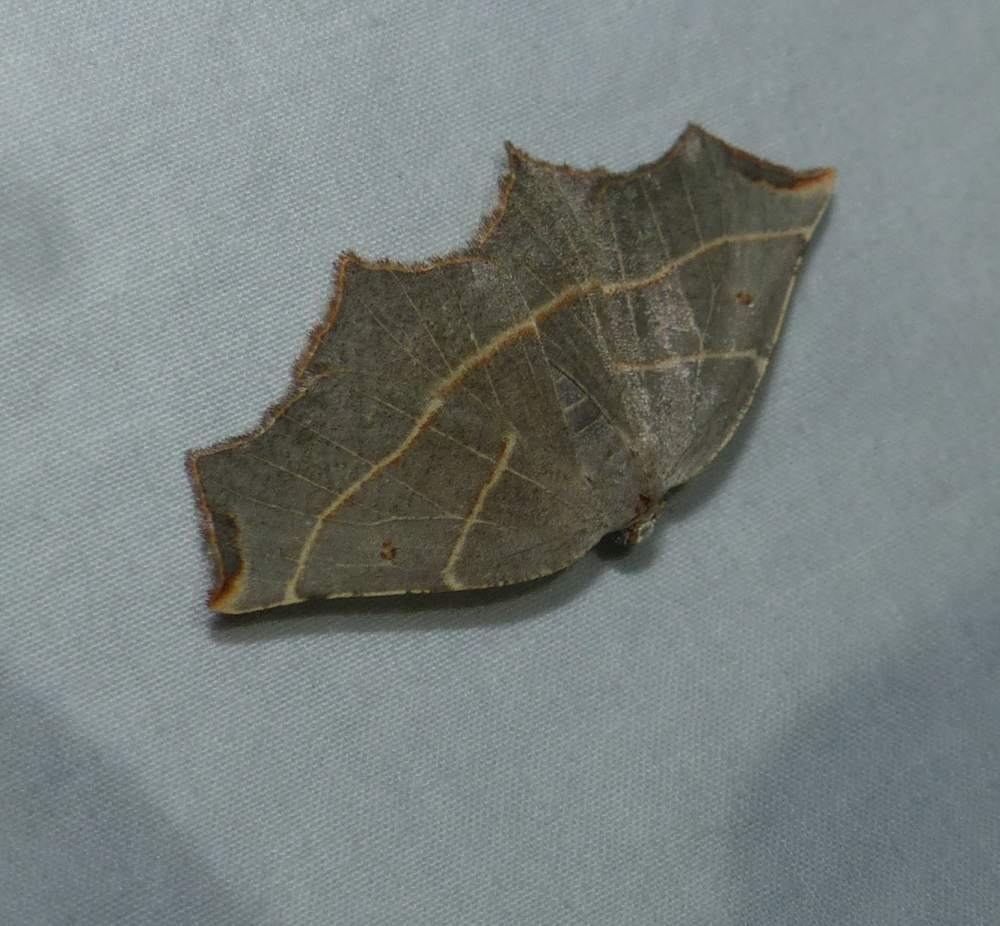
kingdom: Animalia
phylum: Arthropoda
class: Insecta
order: Lepidoptera
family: Geometridae
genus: Metanema
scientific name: Metanema inatomaria
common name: Pale metanema
